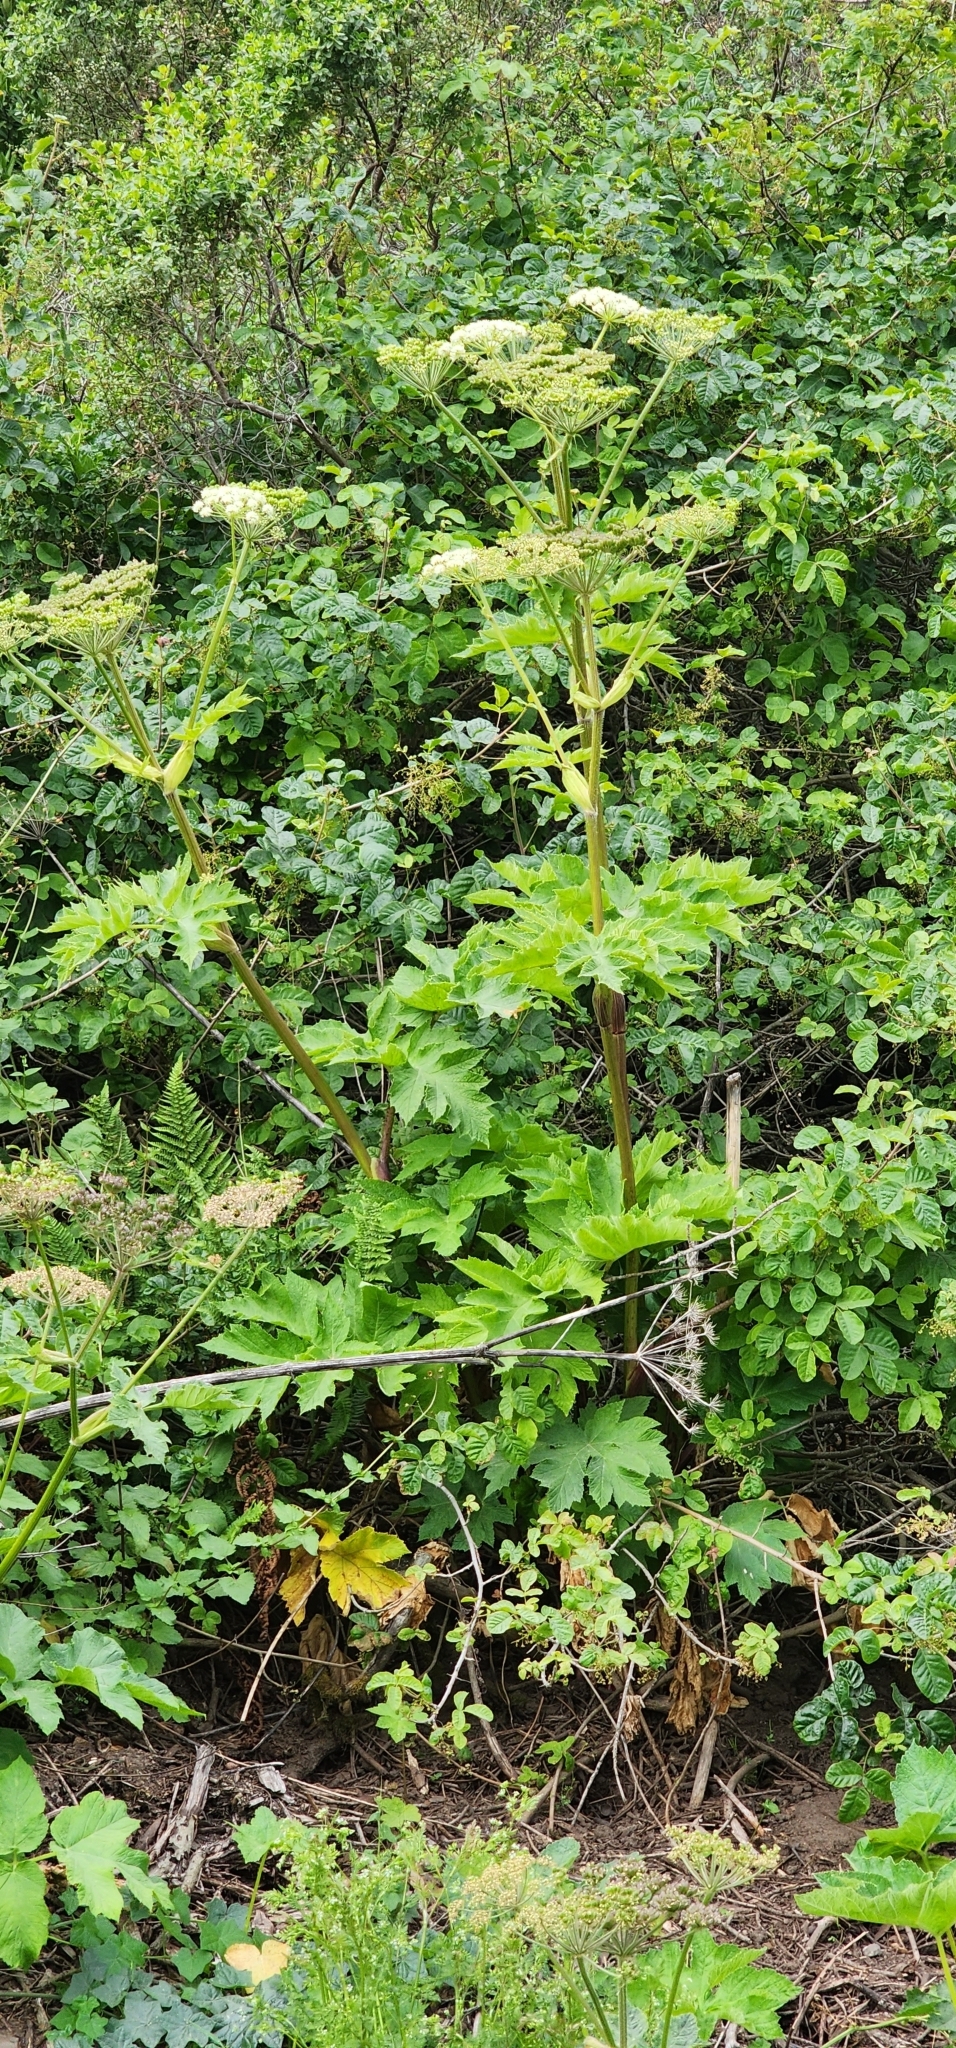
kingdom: Plantae
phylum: Tracheophyta
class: Magnoliopsida
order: Apiales
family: Apiaceae
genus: Heracleum
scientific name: Heracleum maximum
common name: American cow parsnip
